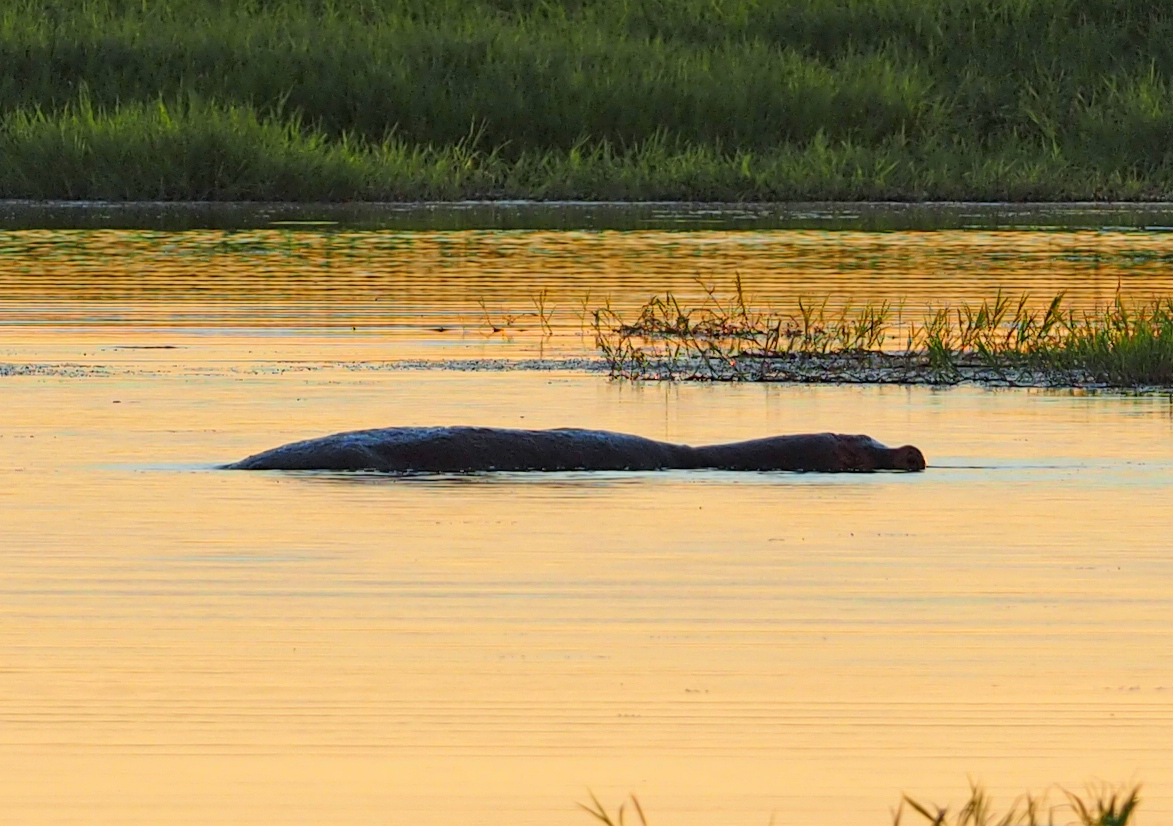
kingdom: Animalia
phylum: Chordata
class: Mammalia
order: Artiodactyla
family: Hippopotamidae
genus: Hippopotamus
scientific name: Hippopotamus amphibius
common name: Common hippopotamus
